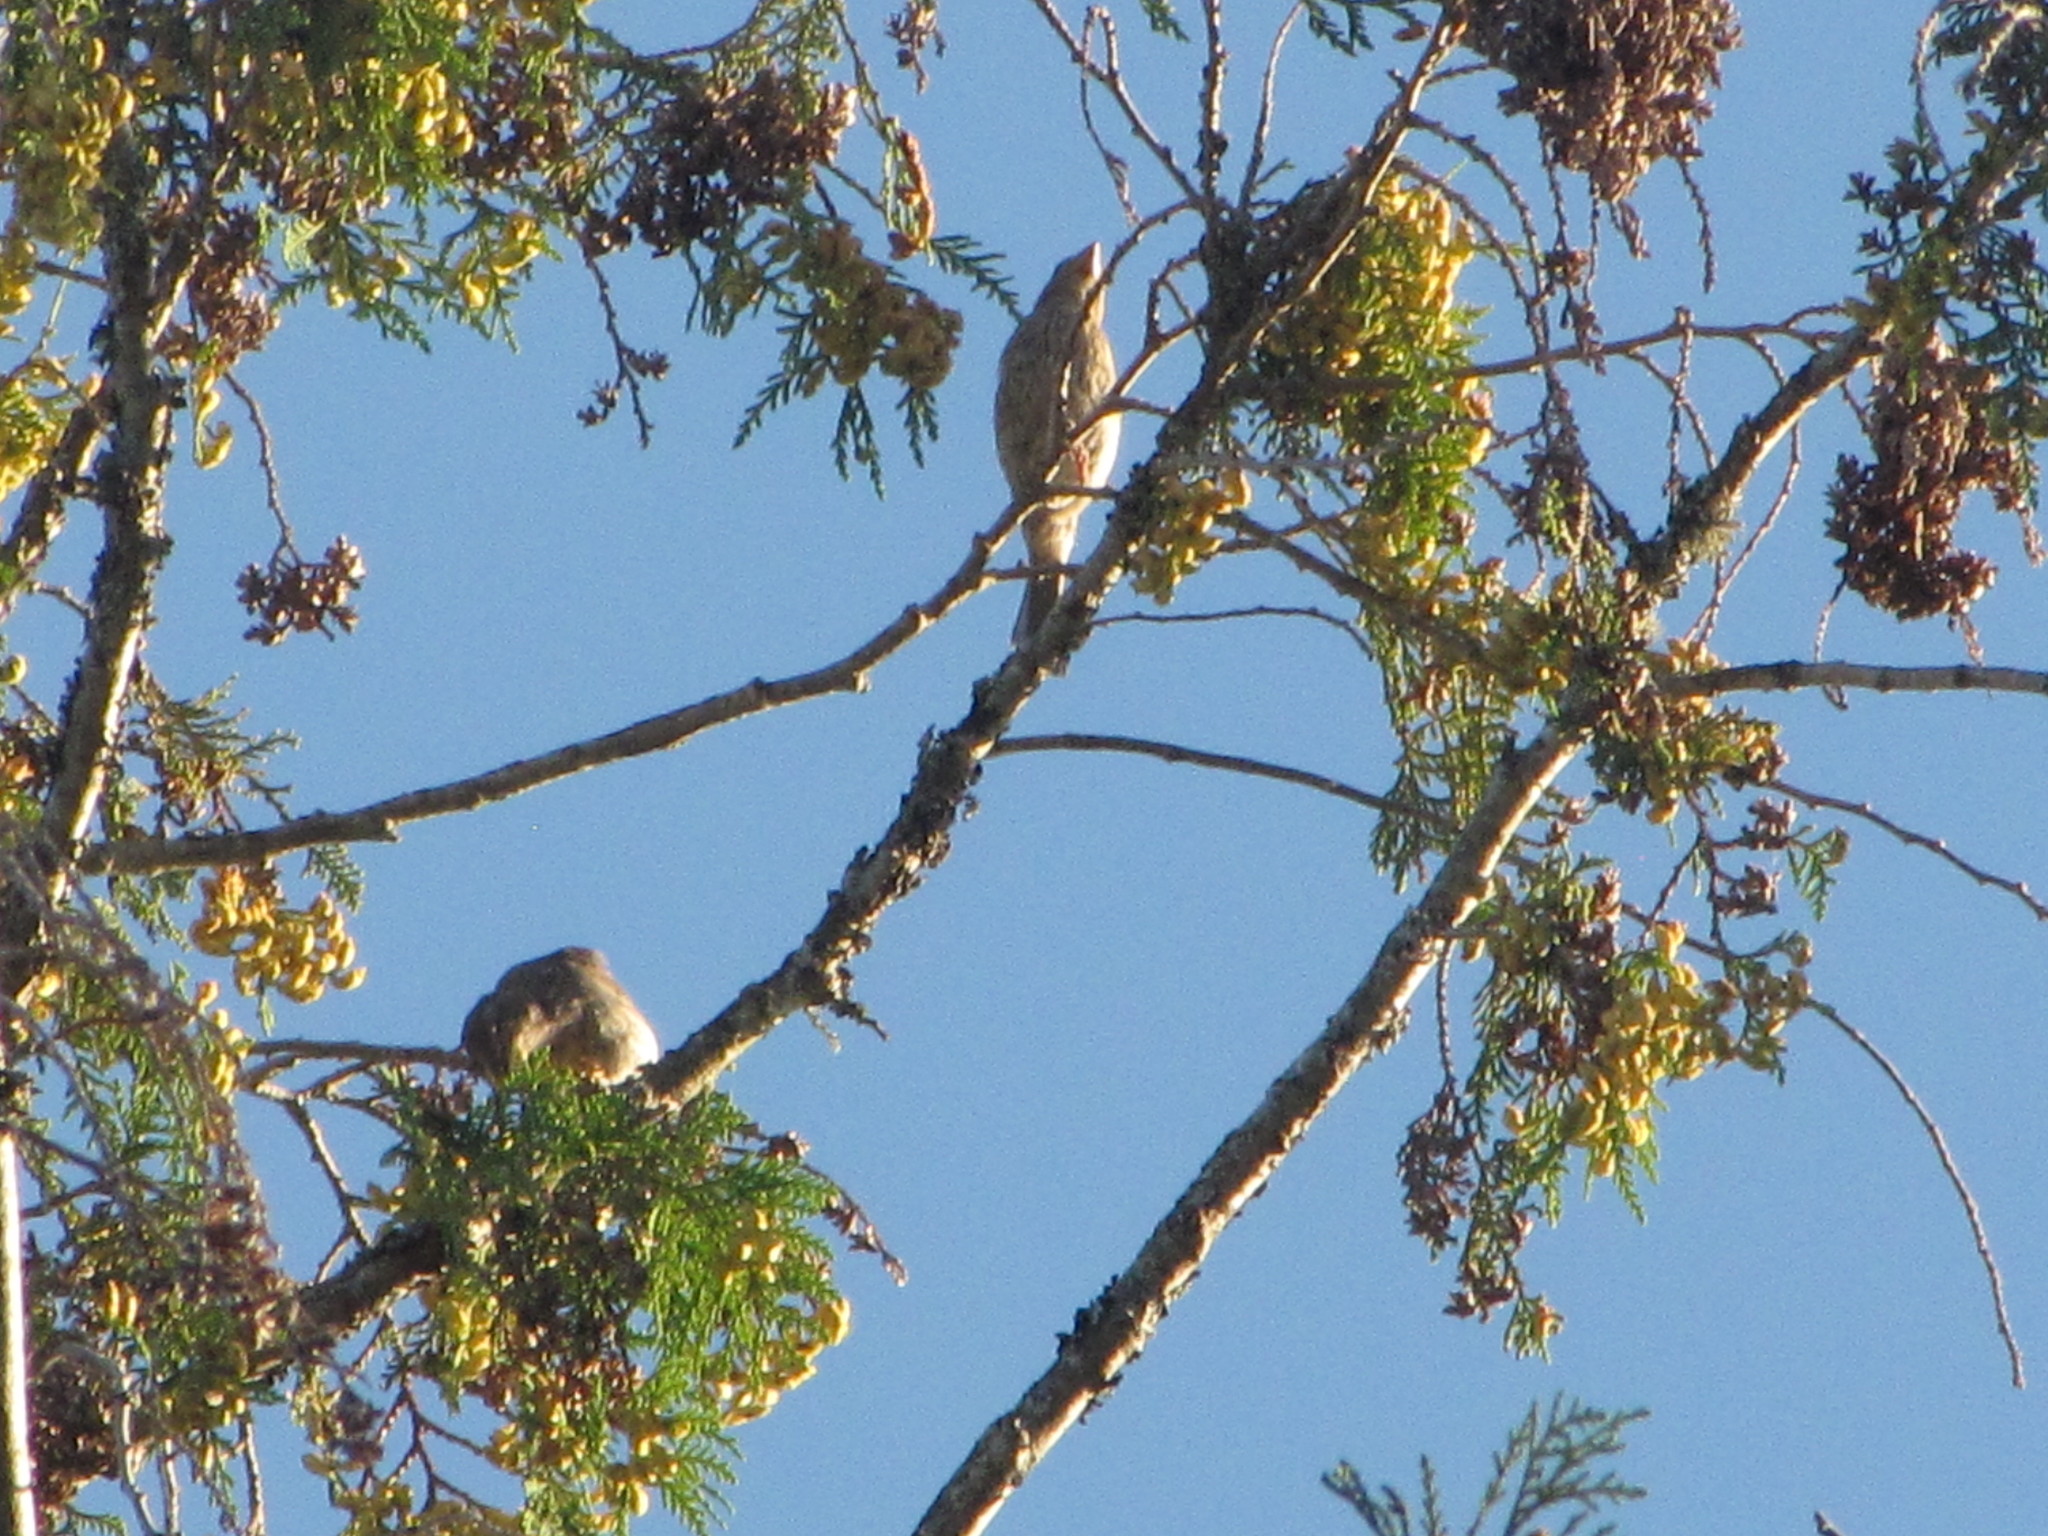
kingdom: Animalia
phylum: Chordata
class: Aves
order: Passeriformes
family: Fringillidae
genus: Haemorhous
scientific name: Haemorhous mexicanus
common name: House finch
